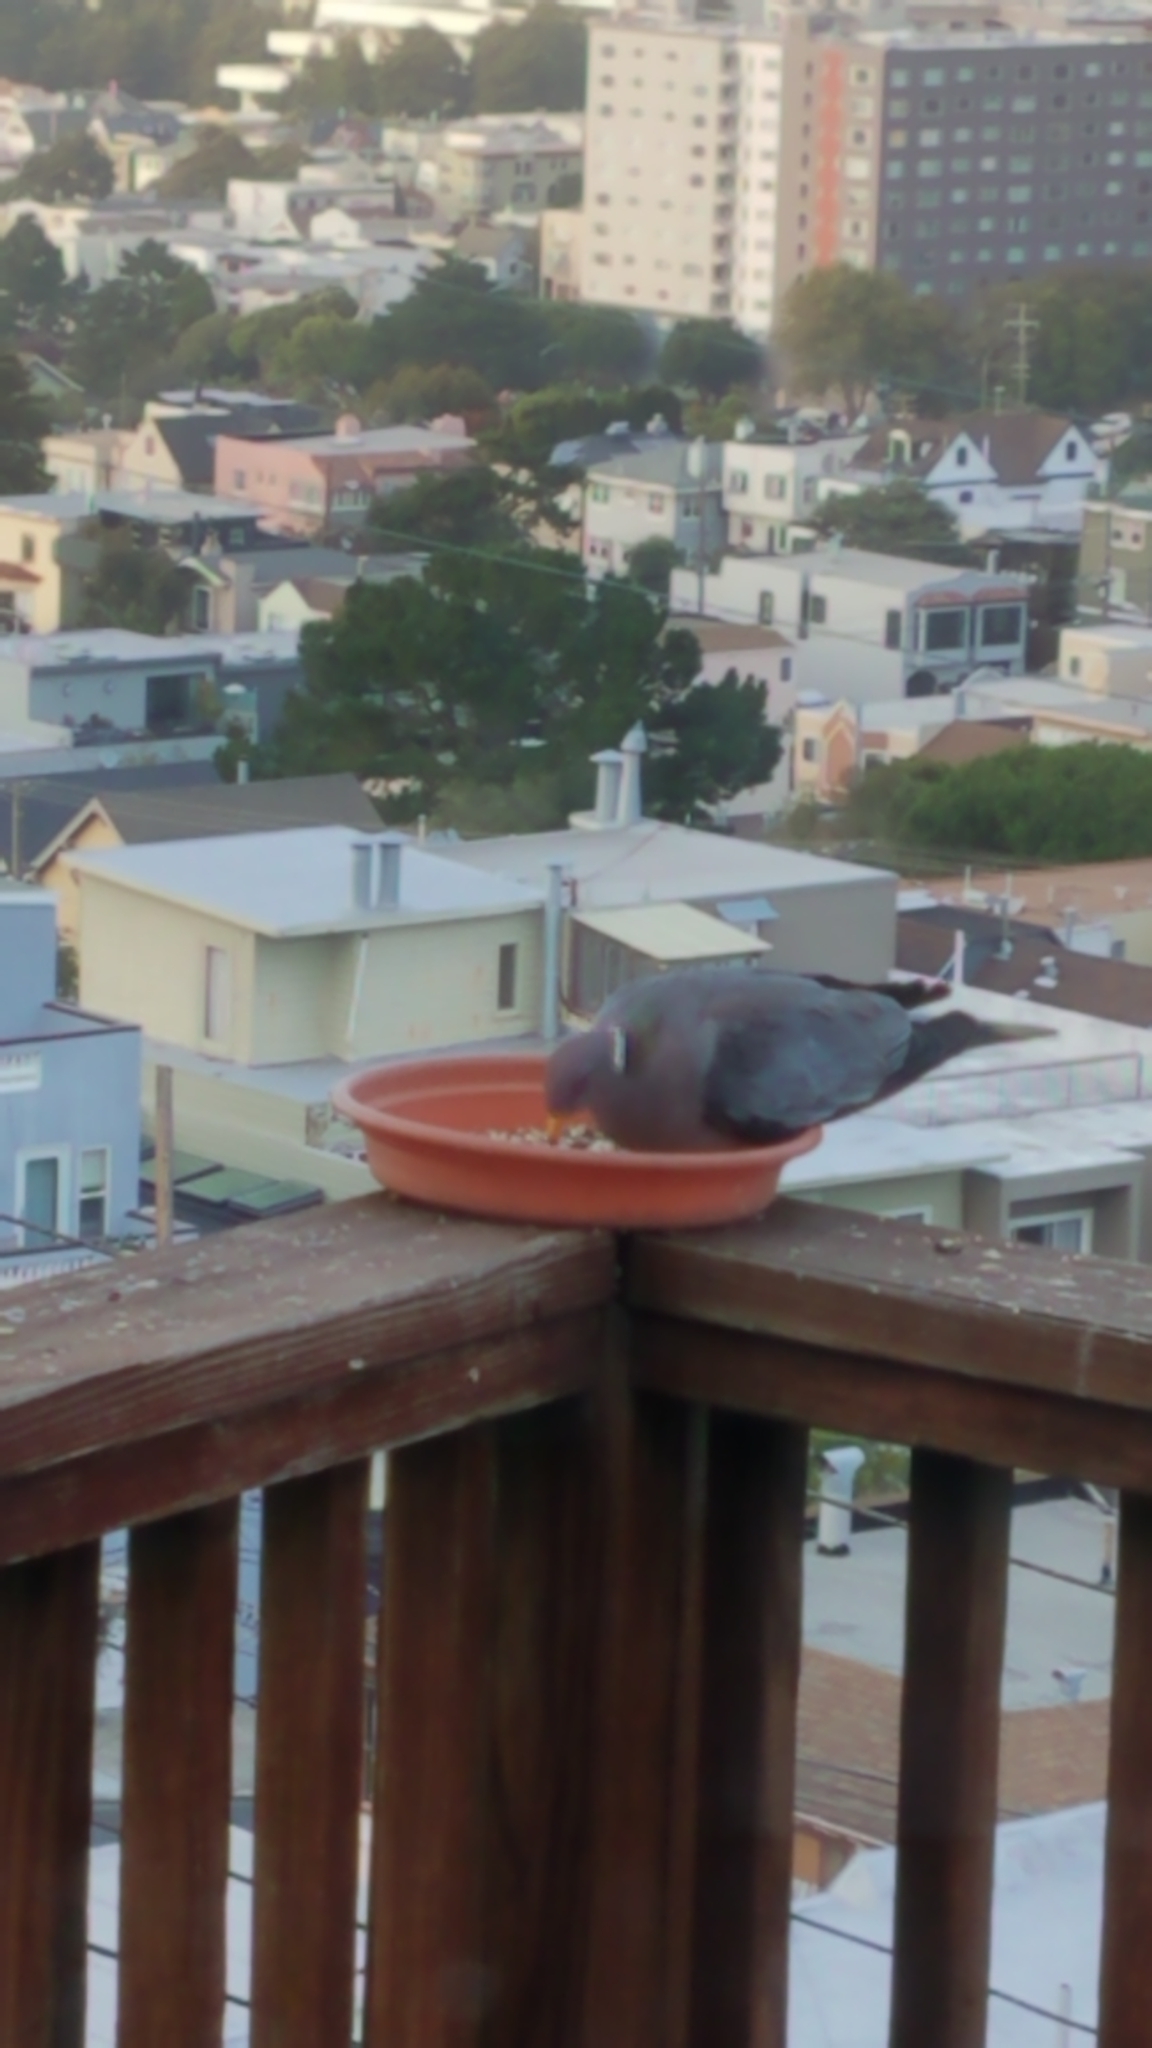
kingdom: Animalia
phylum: Chordata
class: Aves
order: Columbiformes
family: Columbidae
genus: Patagioenas
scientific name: Patagioenas fasciata
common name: Band-tailed pigeon
